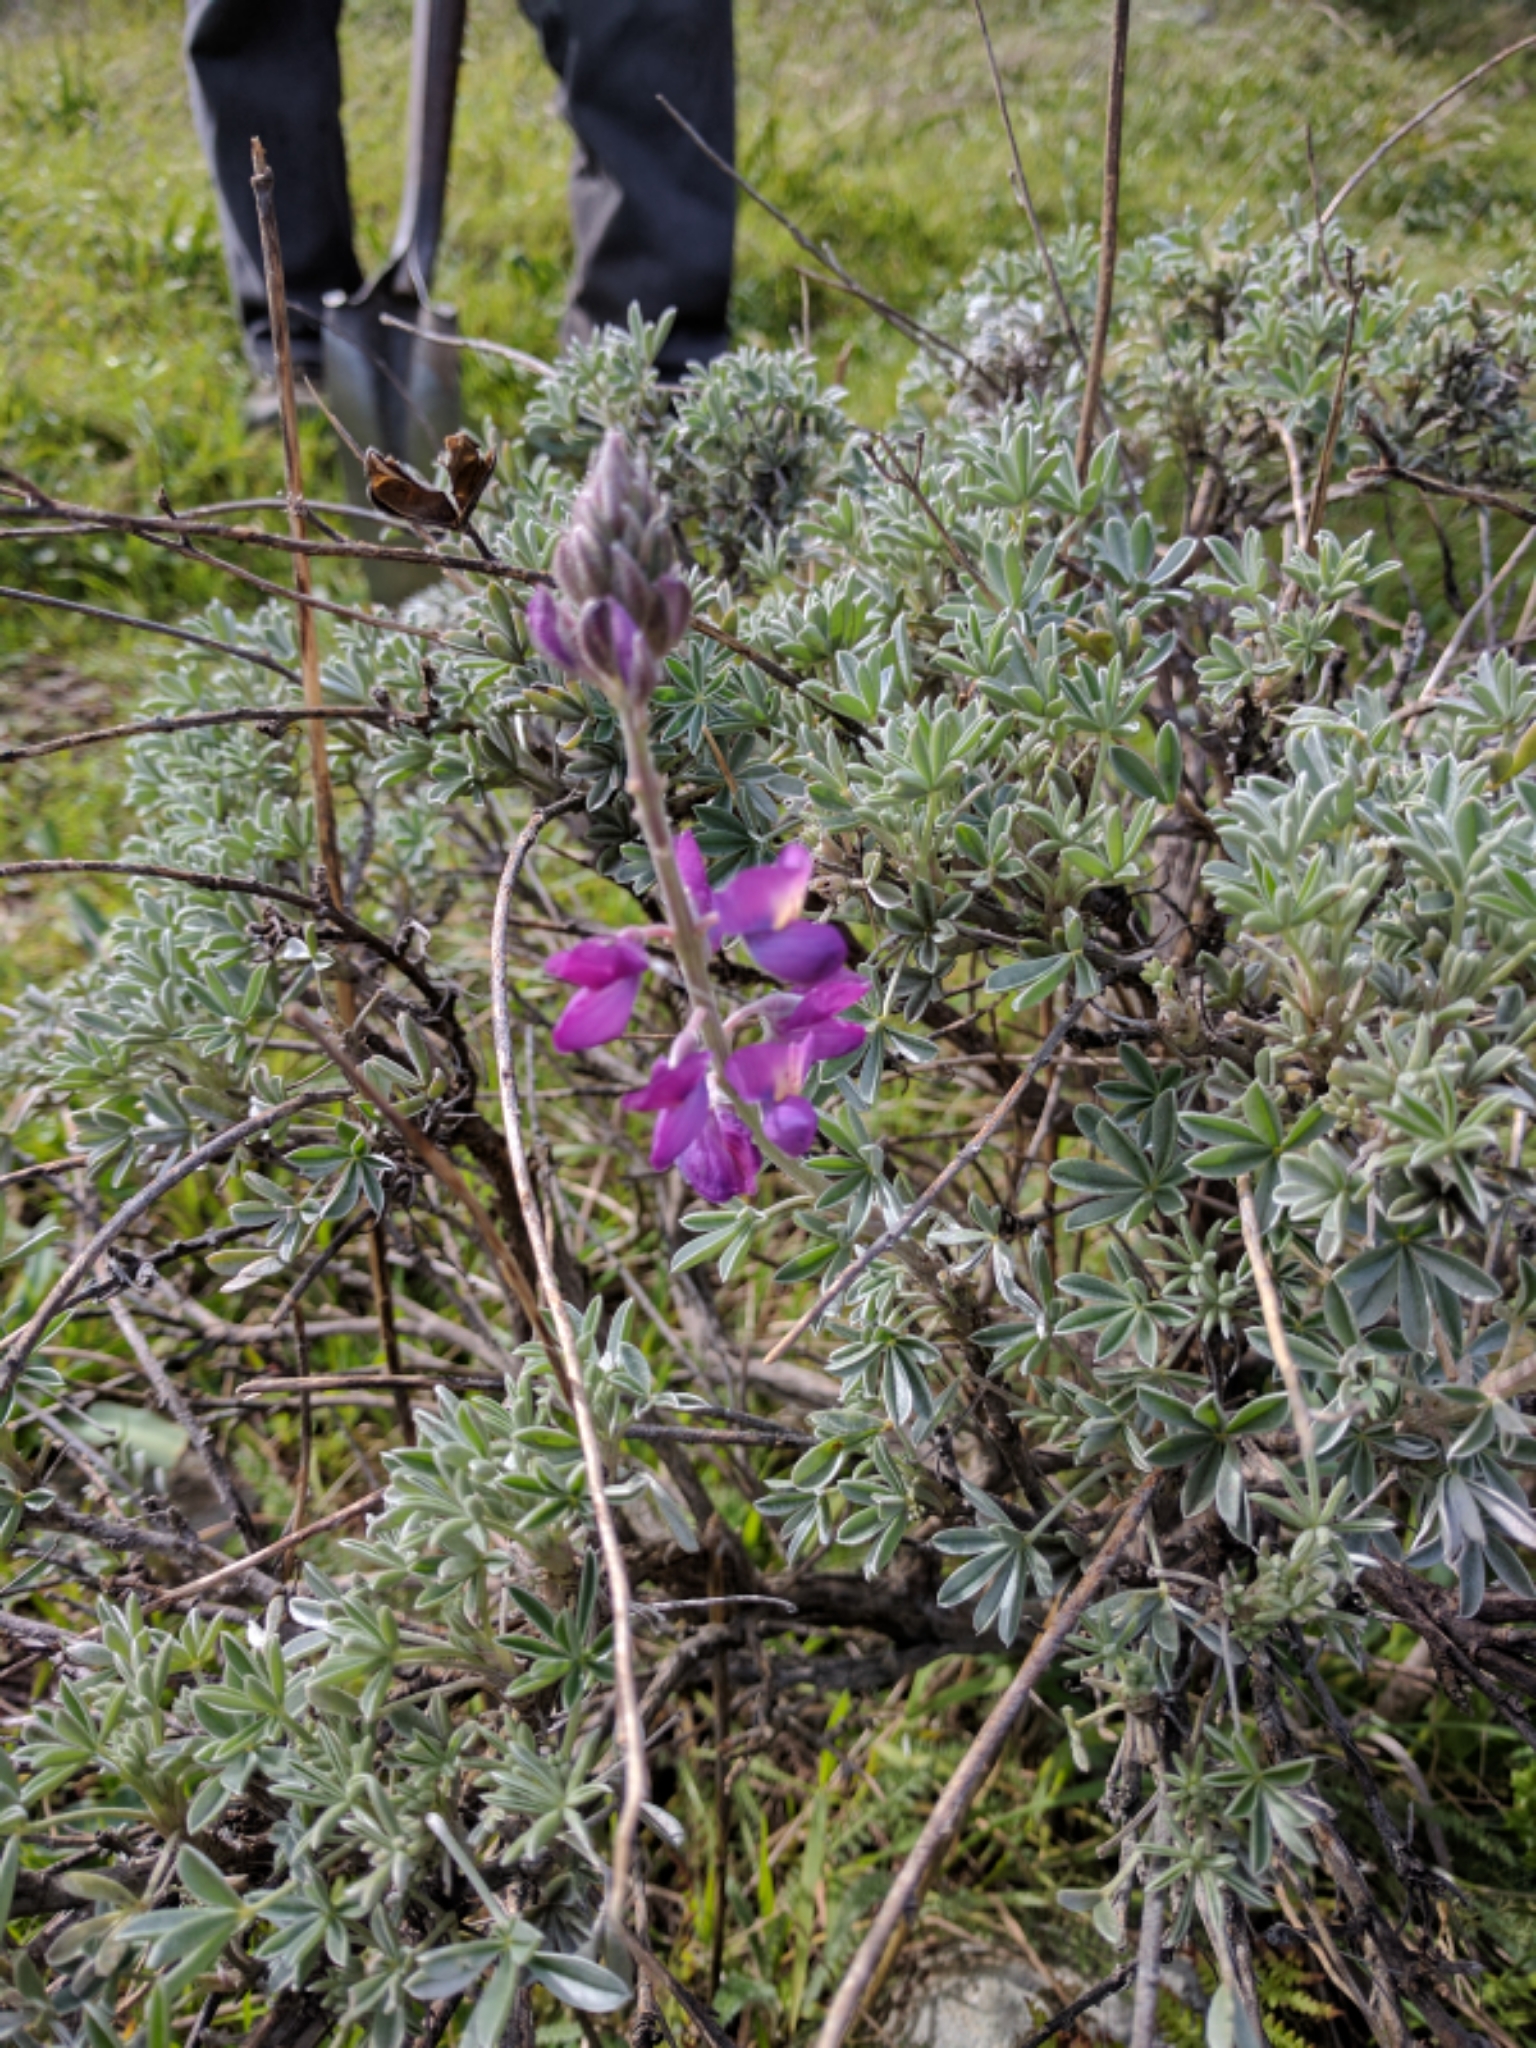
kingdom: Plantae
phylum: Tracheophyta
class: Magnoliopsida
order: Fabales
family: Fabaceae
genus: Lupinus
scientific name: Lupinus albifrons
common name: Foothill lupine
